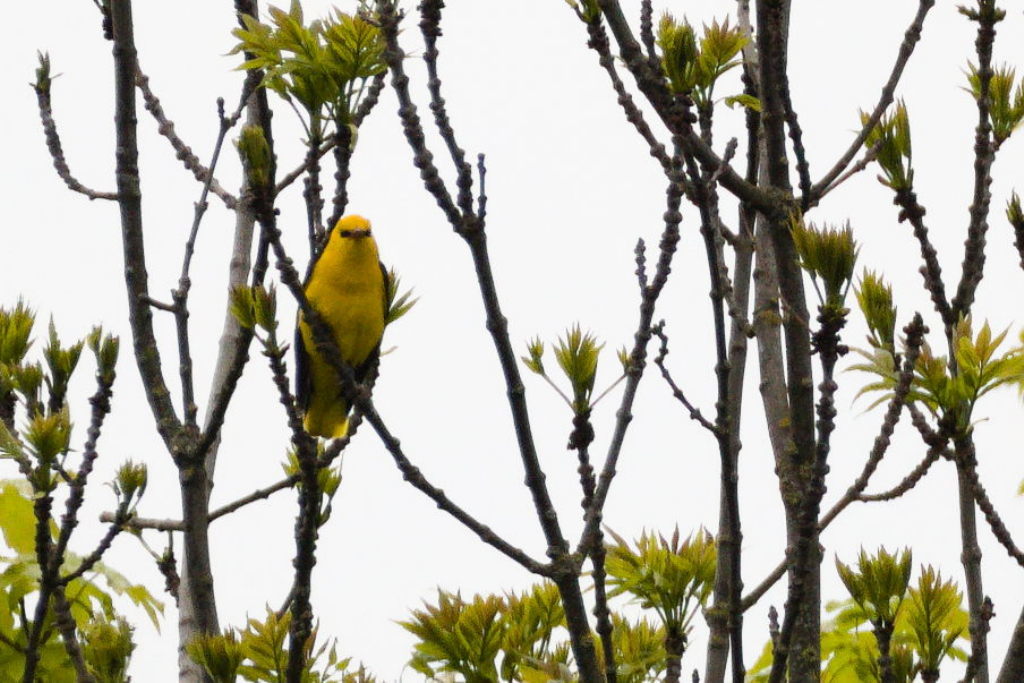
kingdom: Animalia
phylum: Chordata
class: Aves
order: Passeriformes
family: Oriolidae
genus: Oriolus
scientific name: Oriolus oriolus
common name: Eurasian golden oriole
